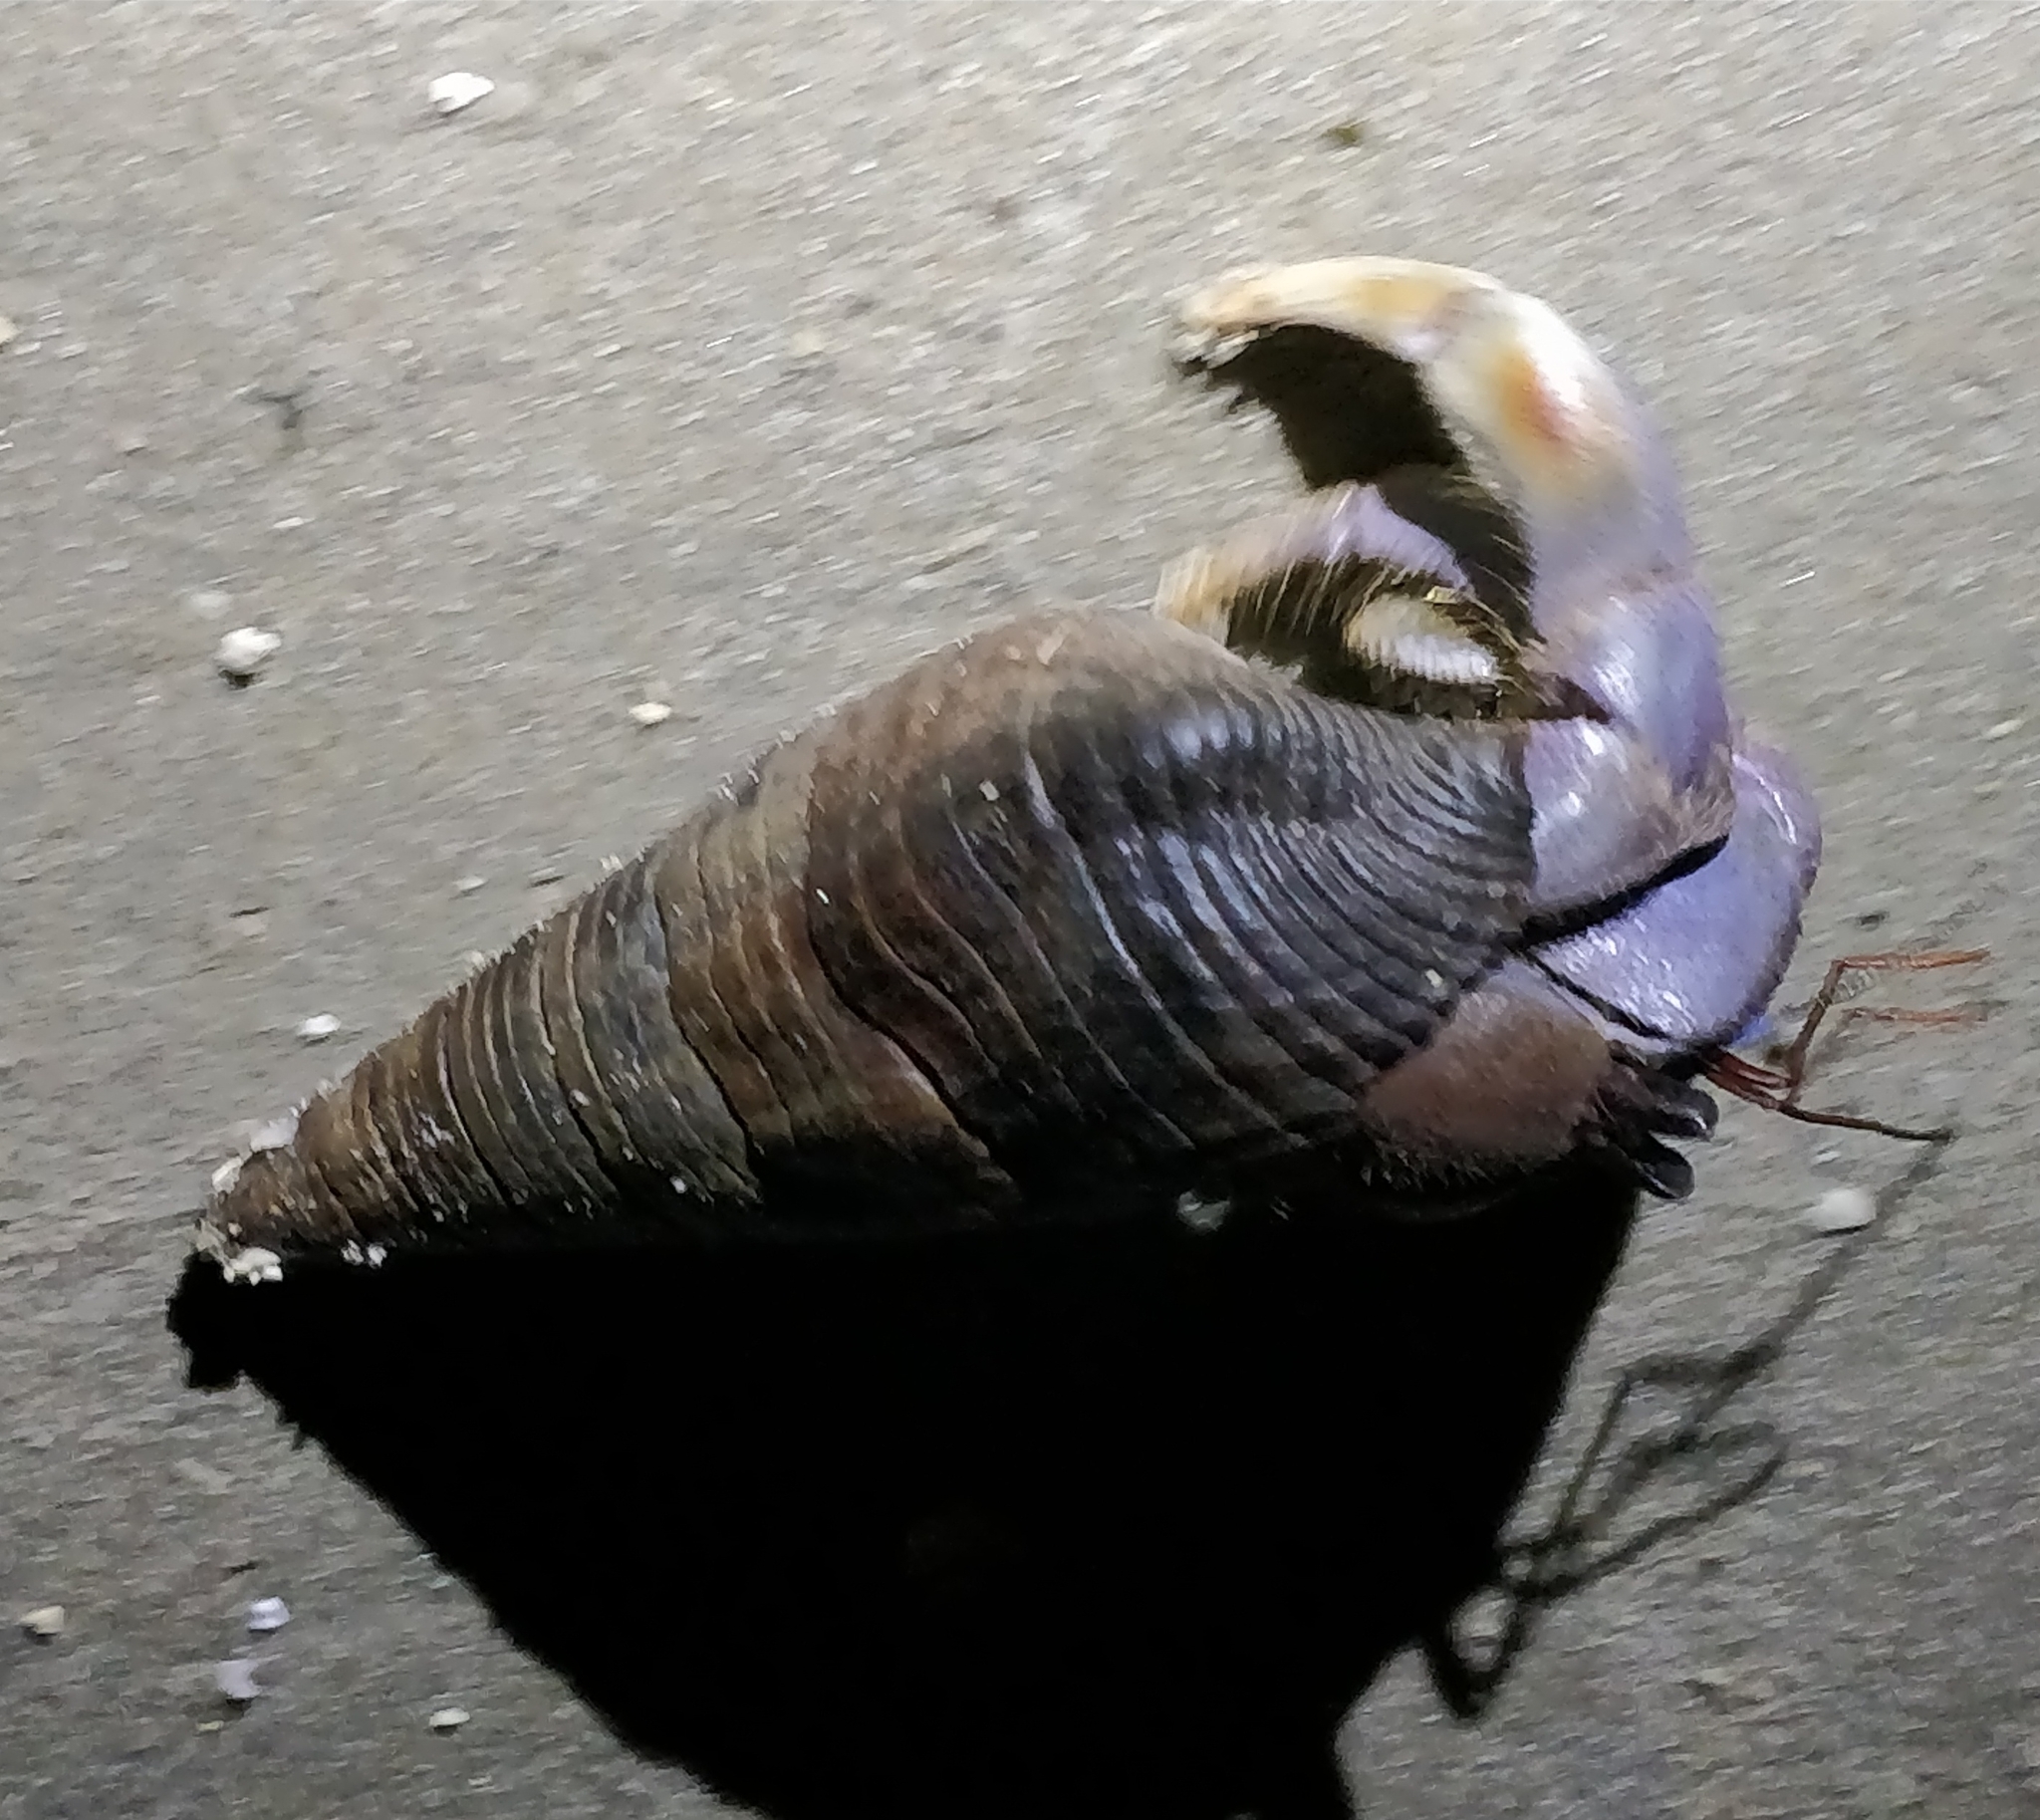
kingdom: Animalia
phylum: Arthropoda
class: Malacostraca
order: Decapoda
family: Coenobitidae
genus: Coenobita
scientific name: Coenobita violascens
